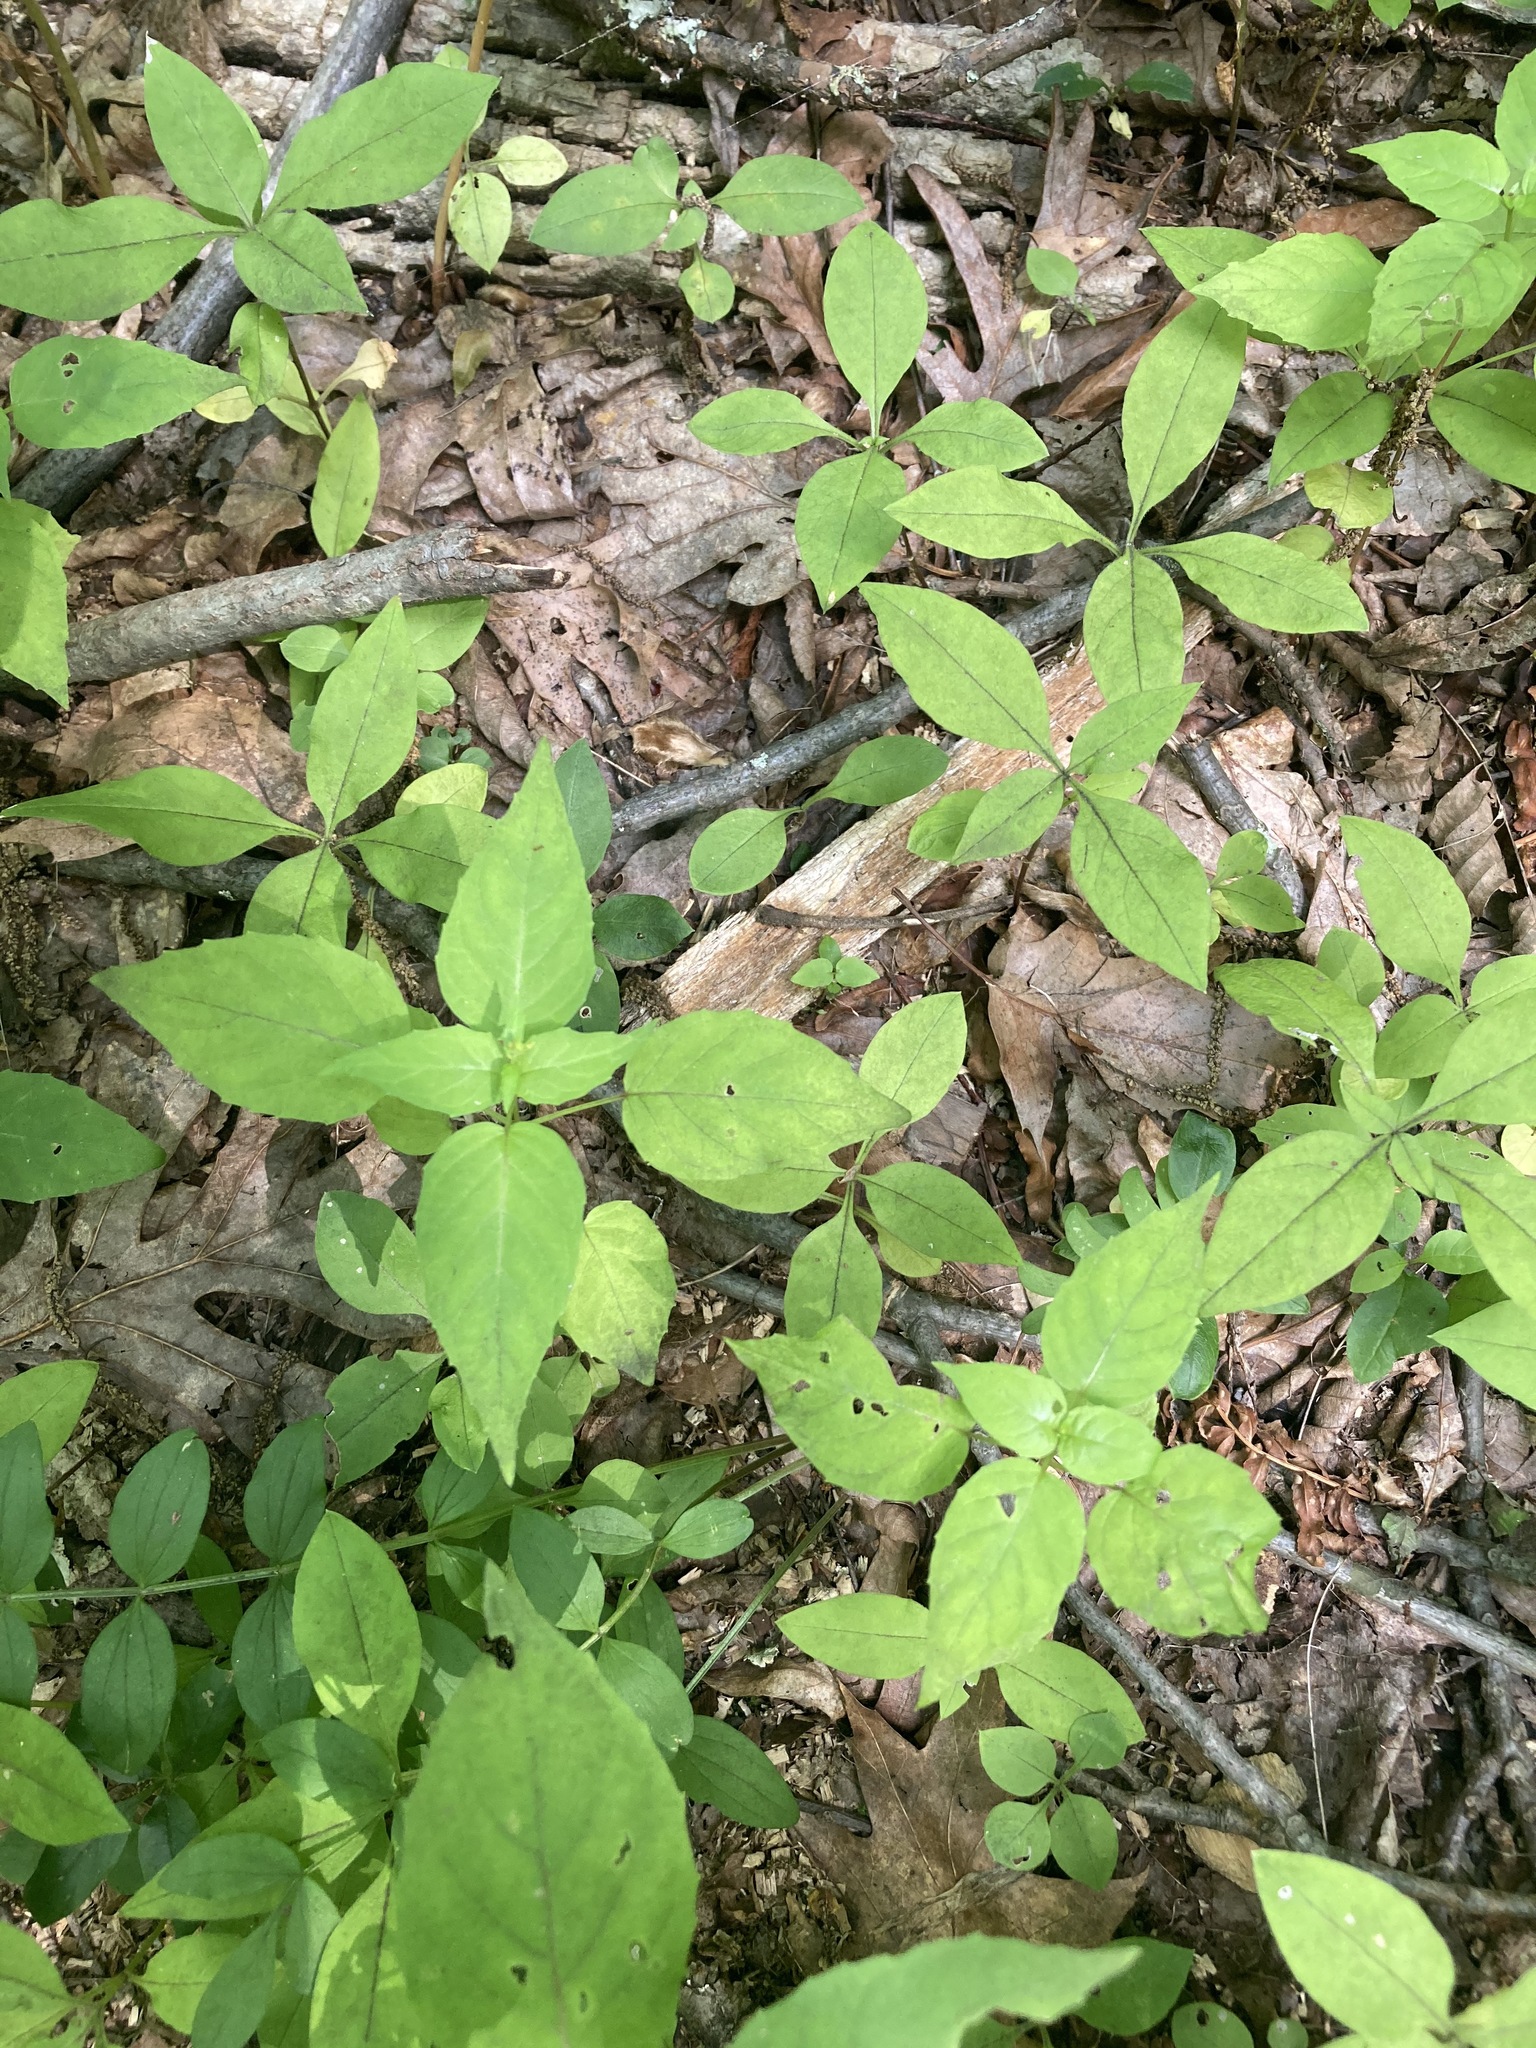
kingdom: Plantae
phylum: Tracheophyta
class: Magnoliopsida
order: Myrtales
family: Onagraceae
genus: Circaea
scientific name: Circaea canadensis
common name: Broad-leaved enchanter's nightshade
